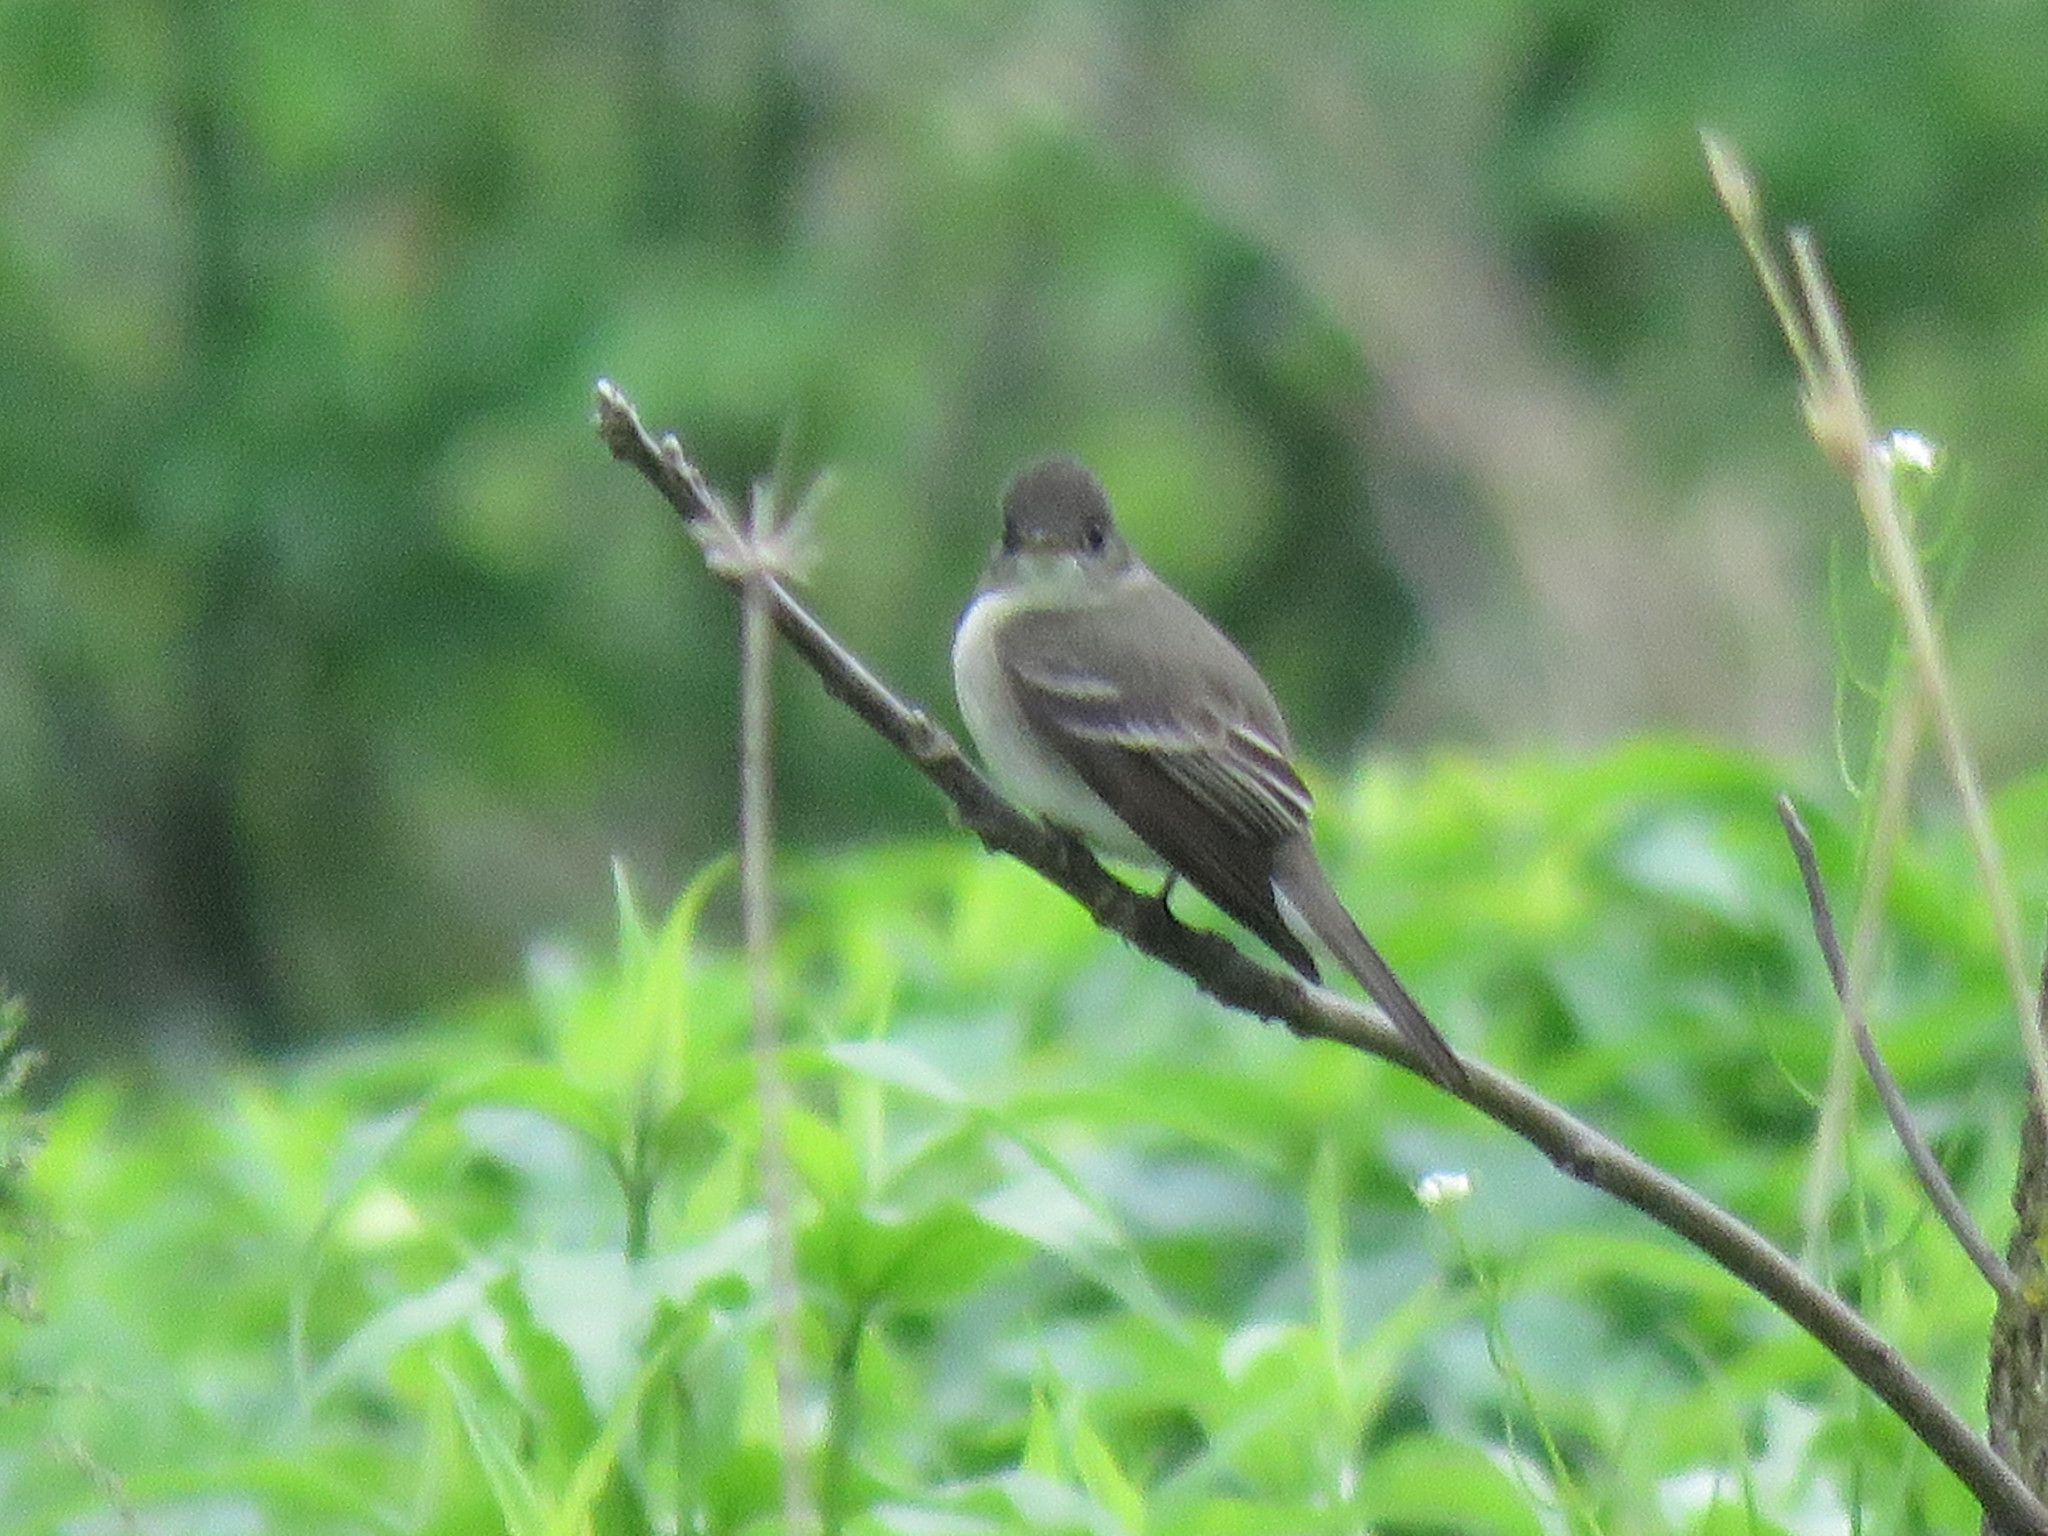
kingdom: Animalia
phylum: Chordata
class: Aves
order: Passeriformes
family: Tyrannidae
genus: Contopus
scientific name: Contopus virens
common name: Eastern wood-pewee
